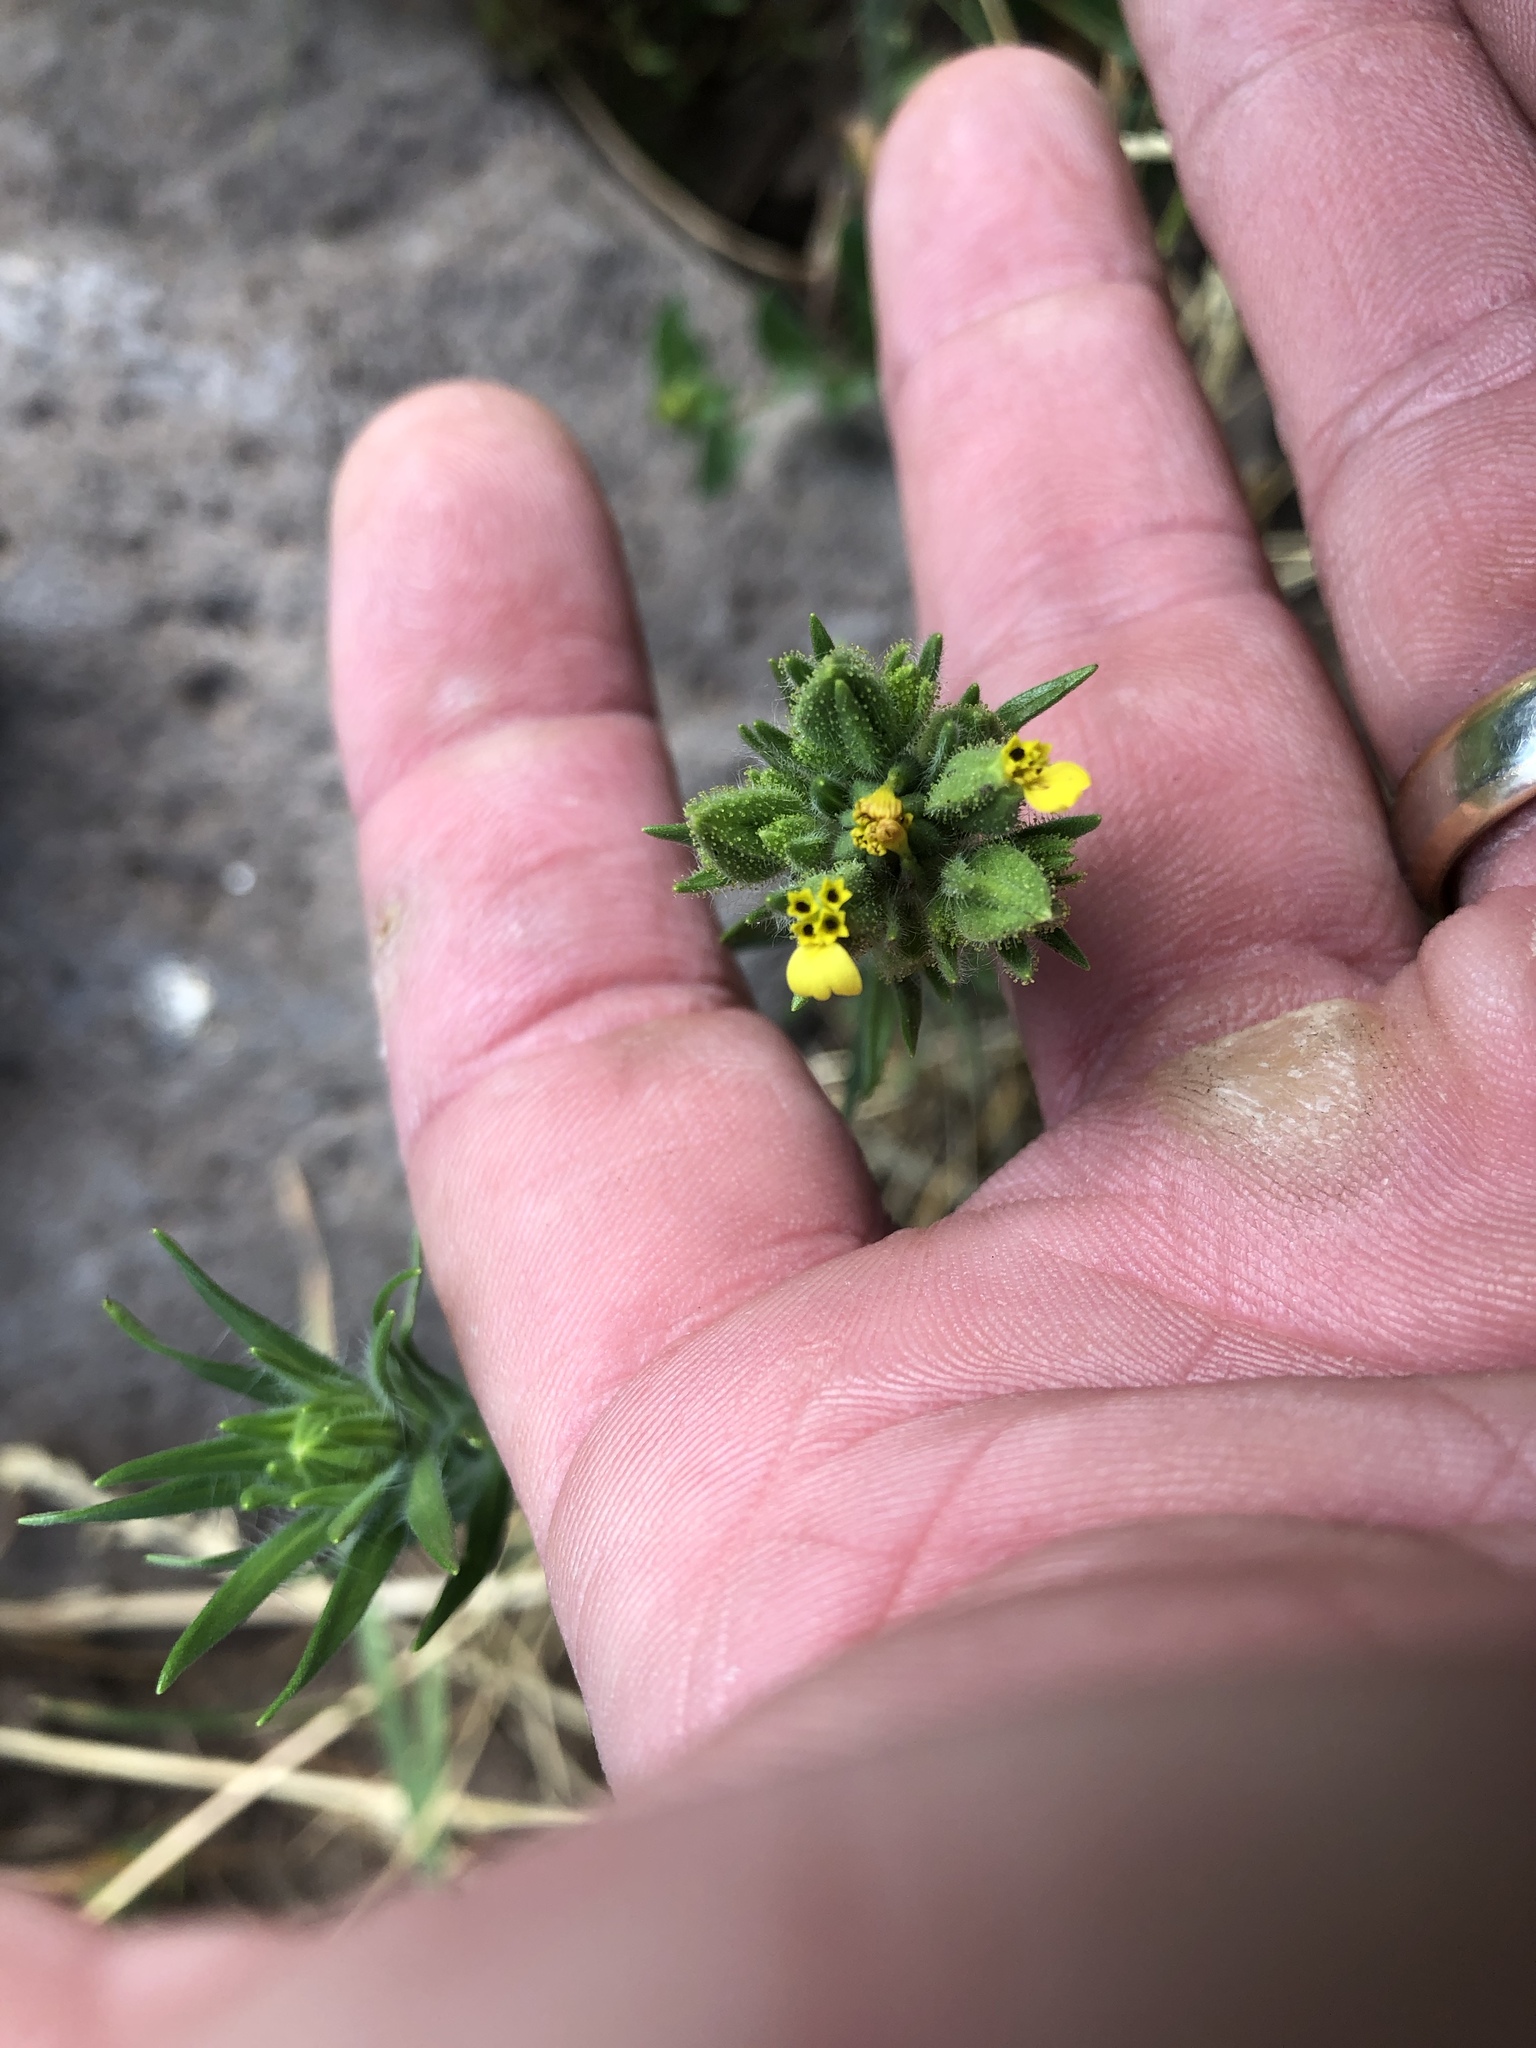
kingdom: Plantae
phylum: Tracheophyta
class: Magnoliopsida
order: Asterales
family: Asteraceae
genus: Madia
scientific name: Madia glomerata
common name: Mountain tarweed
